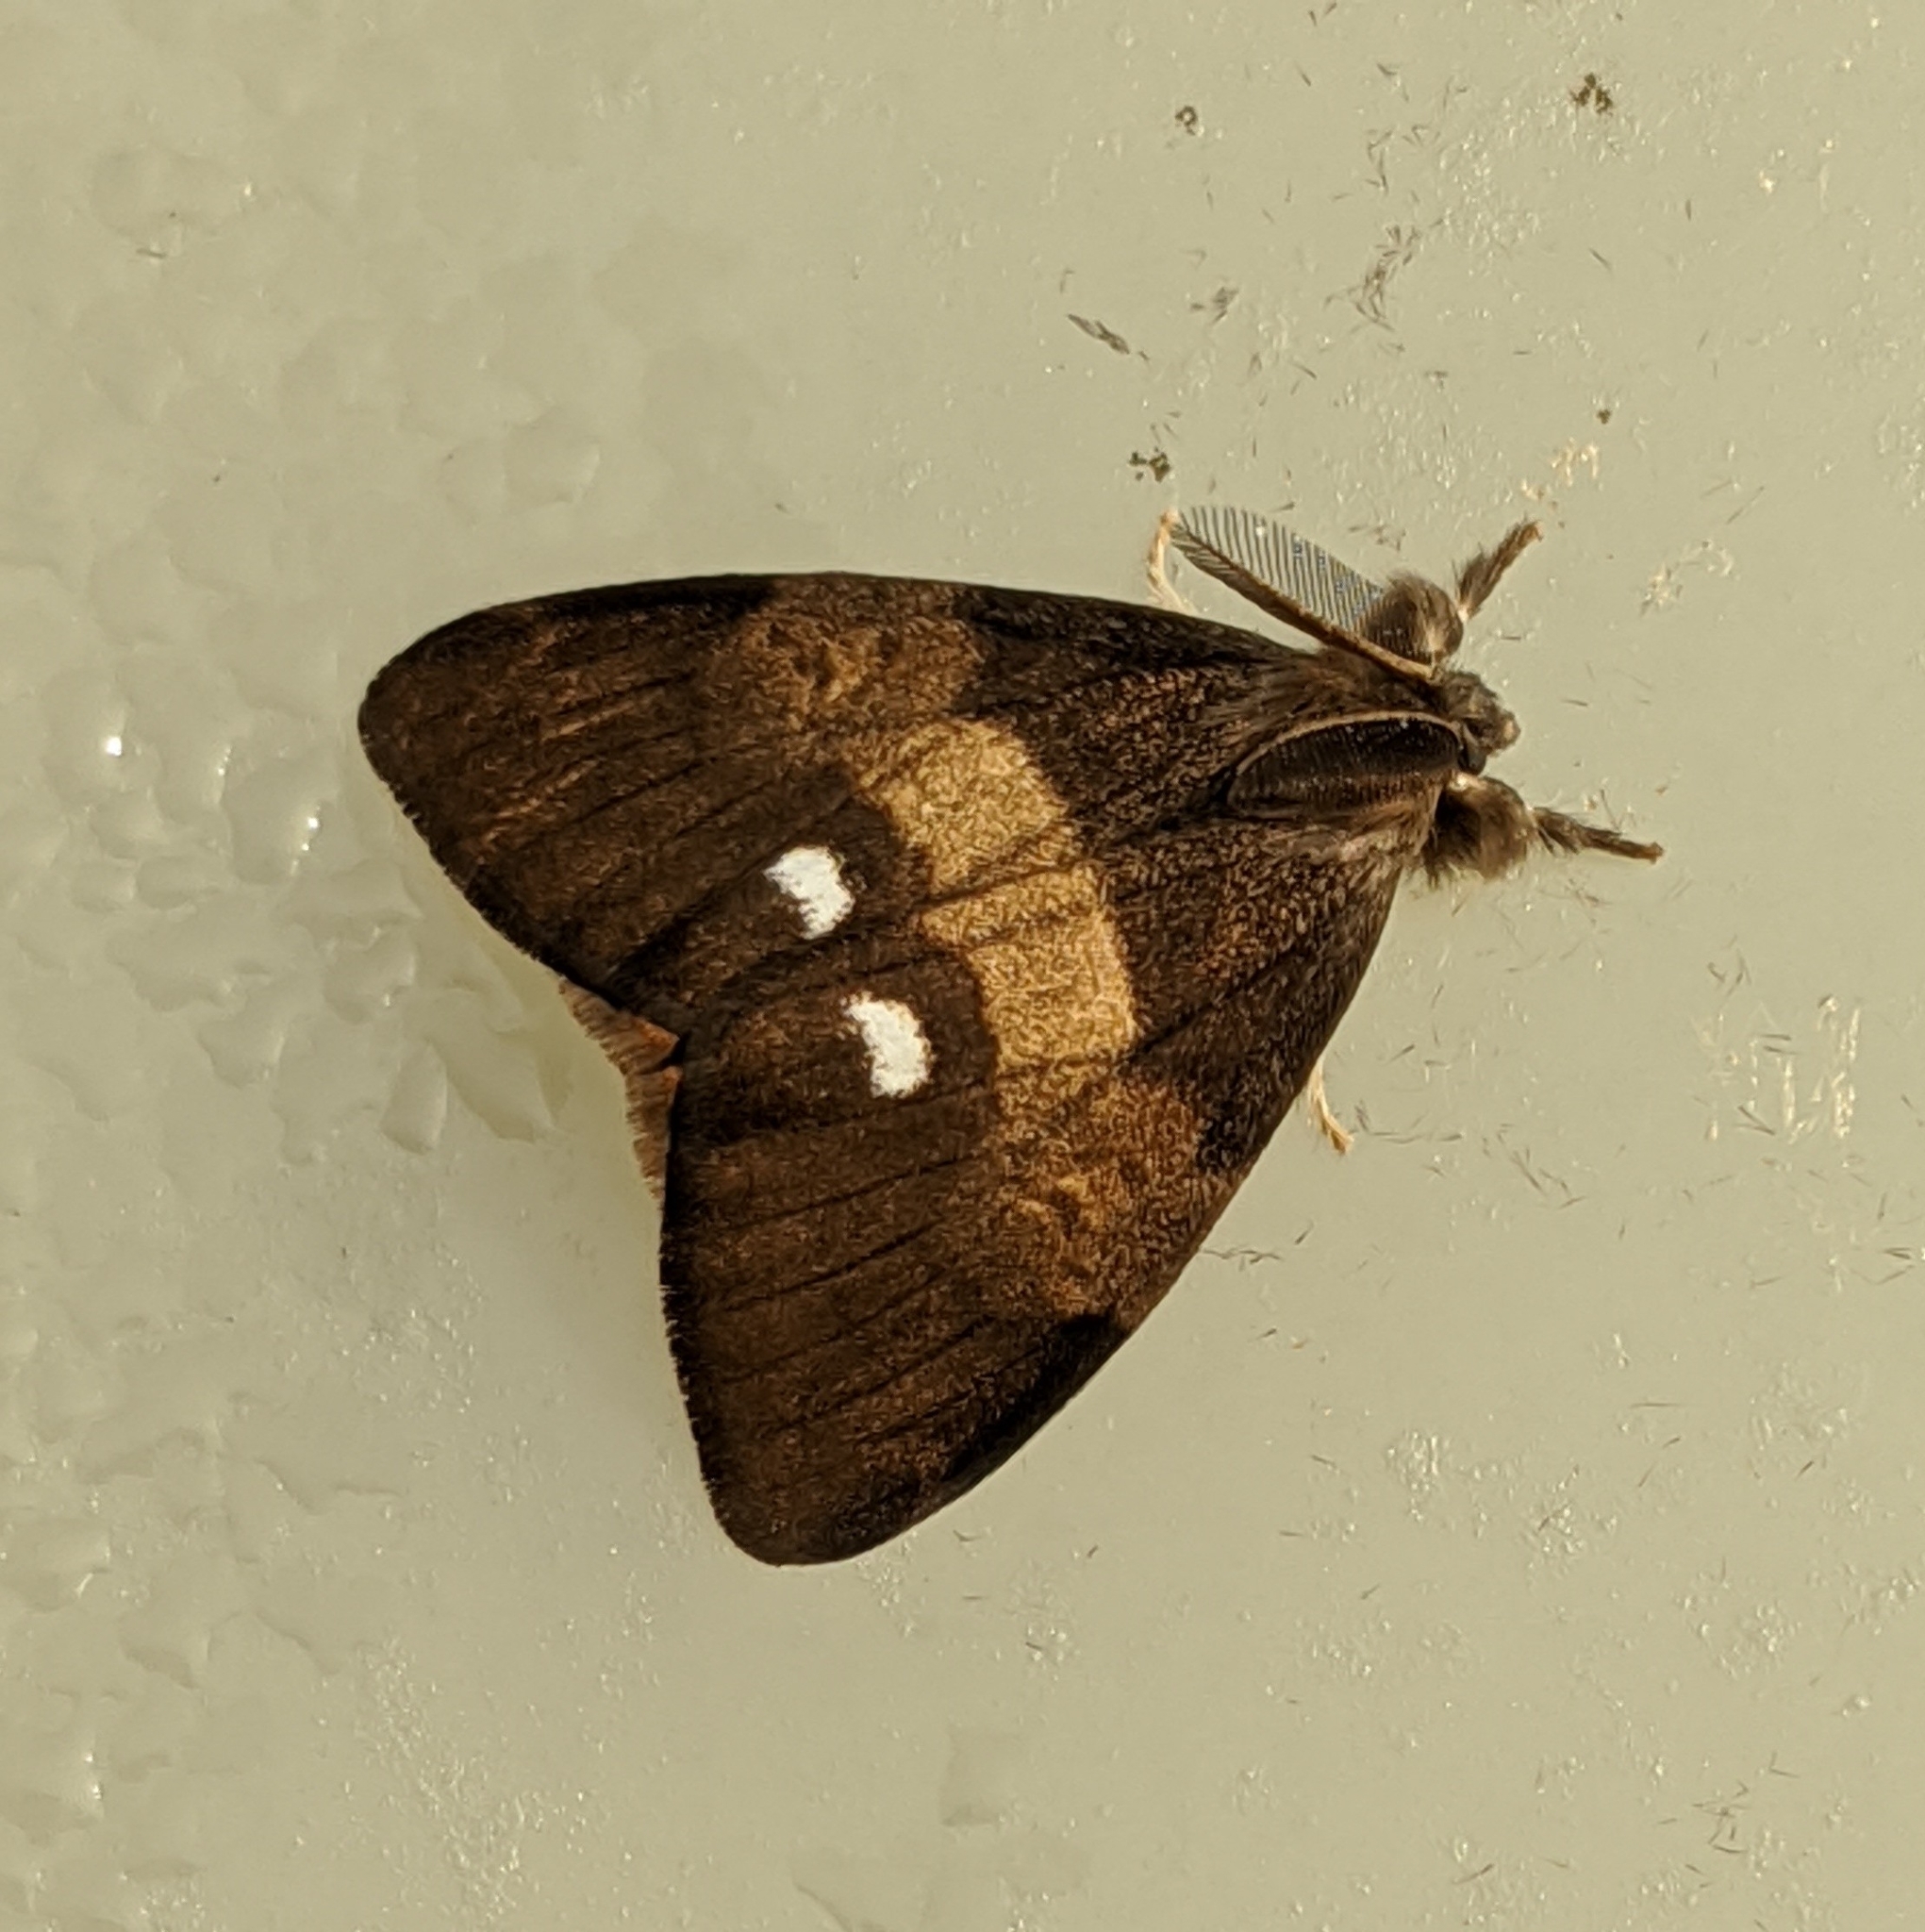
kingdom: Animalia
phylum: Arthropoda
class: Insecta
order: Lepidoptera
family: Erebidae
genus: Orgyia
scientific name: Orgyia antiqua
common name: Vapourer
